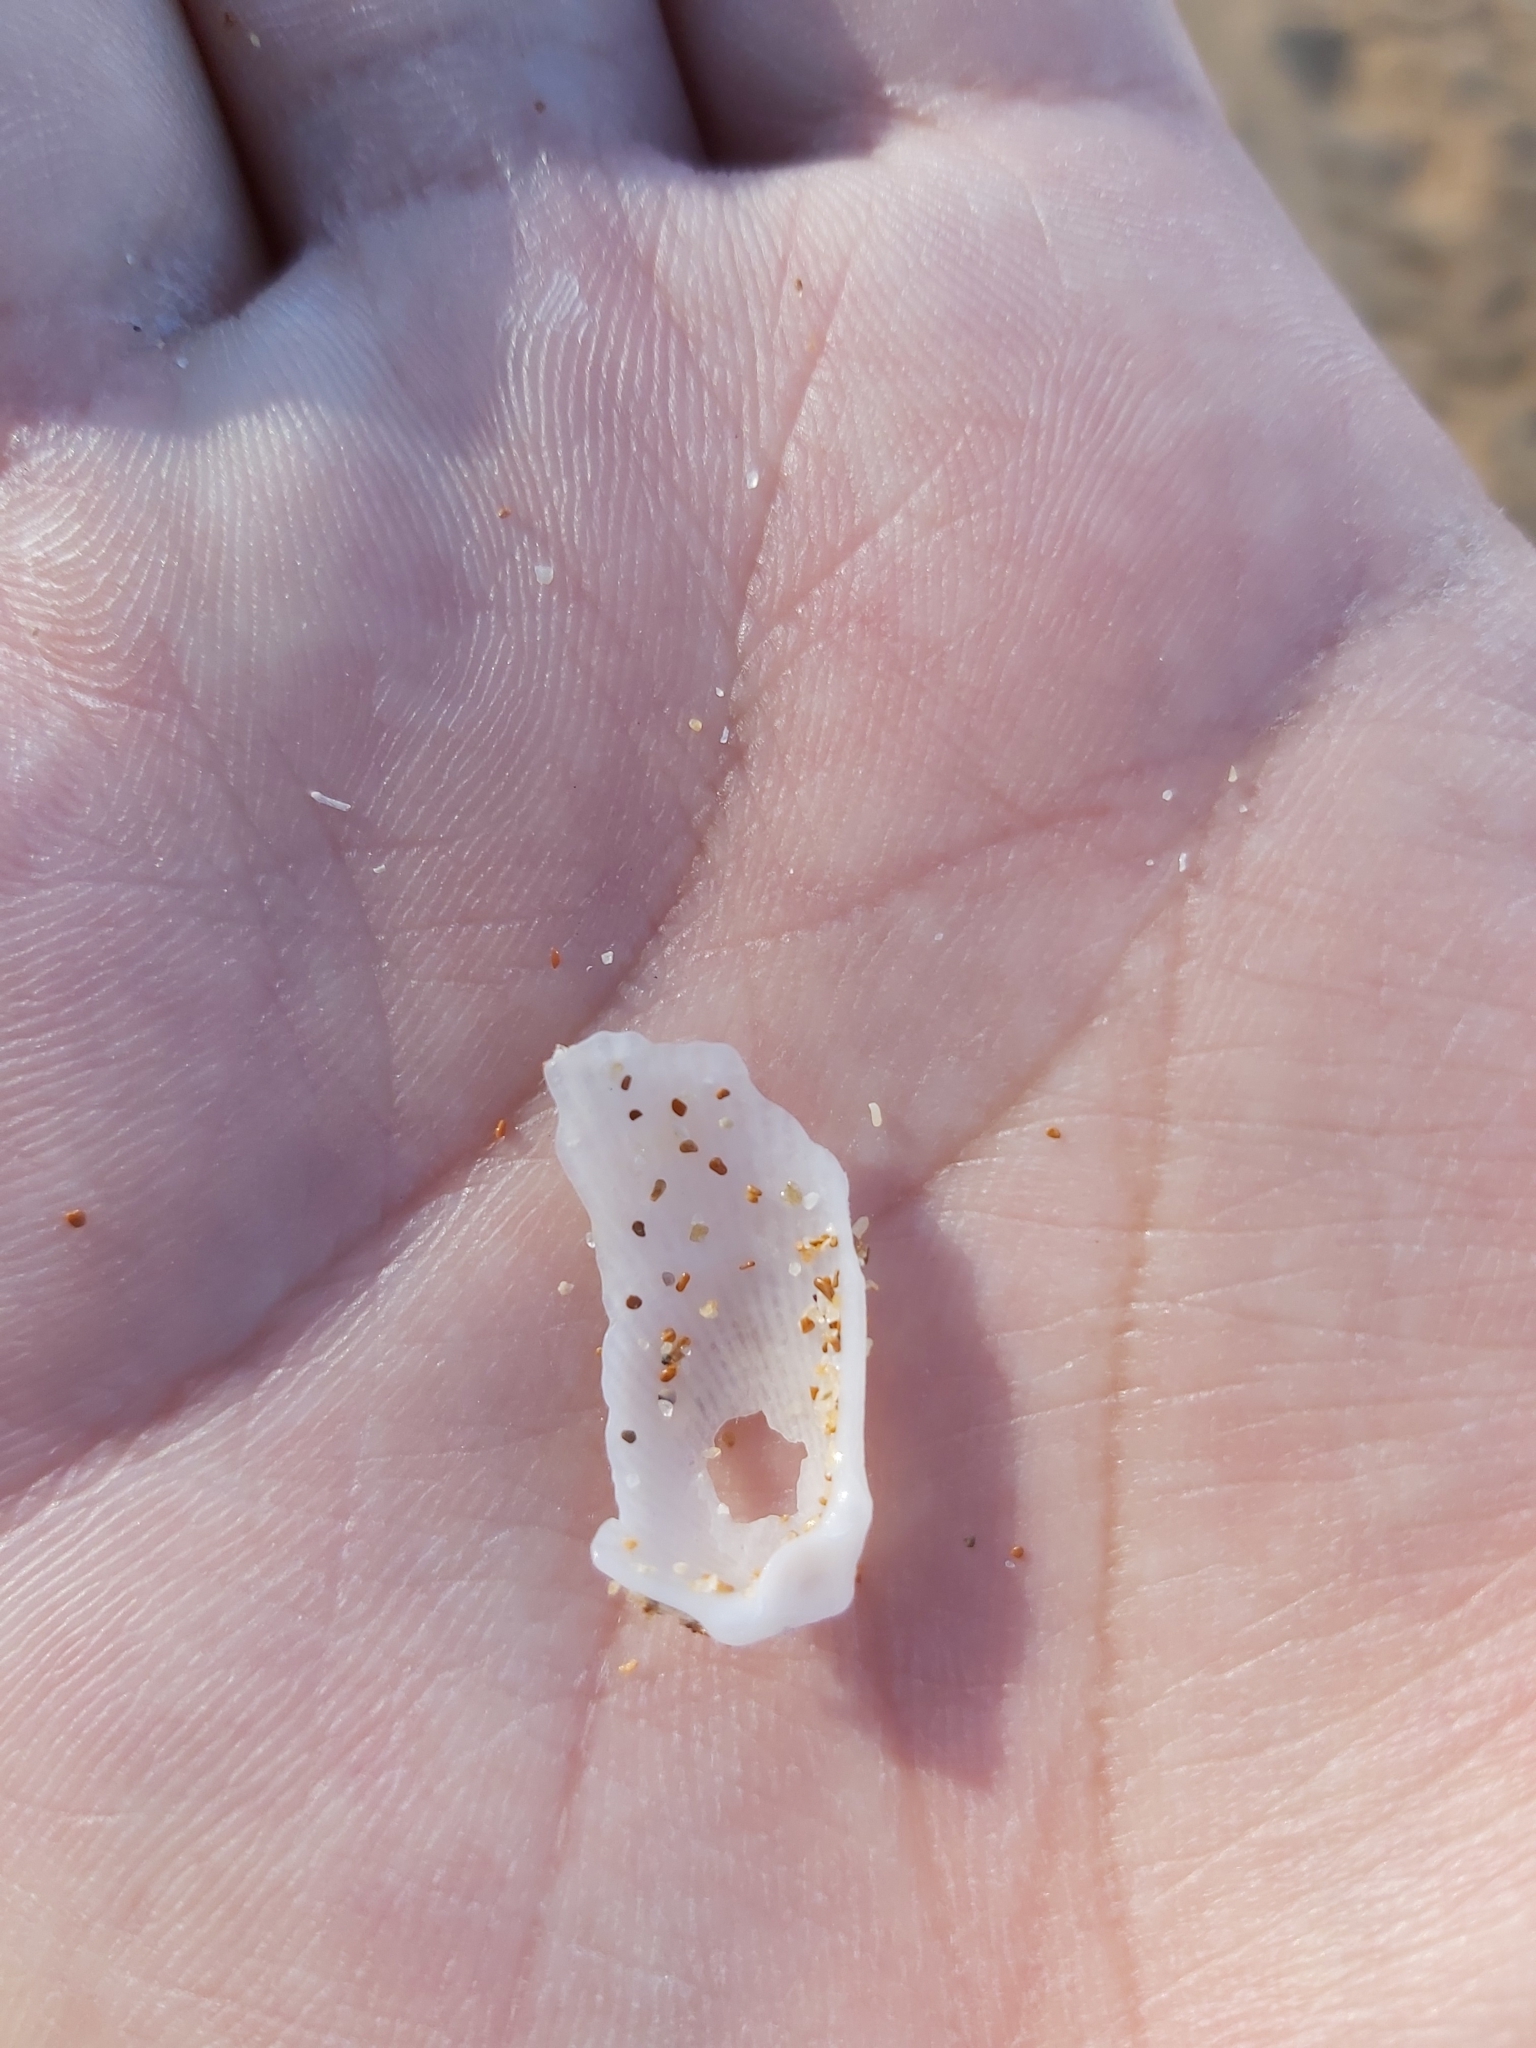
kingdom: Animalia
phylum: Mollusca
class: Bivalvia
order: Limida
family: Limidae
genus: Lima
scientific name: Lima nimbifer
